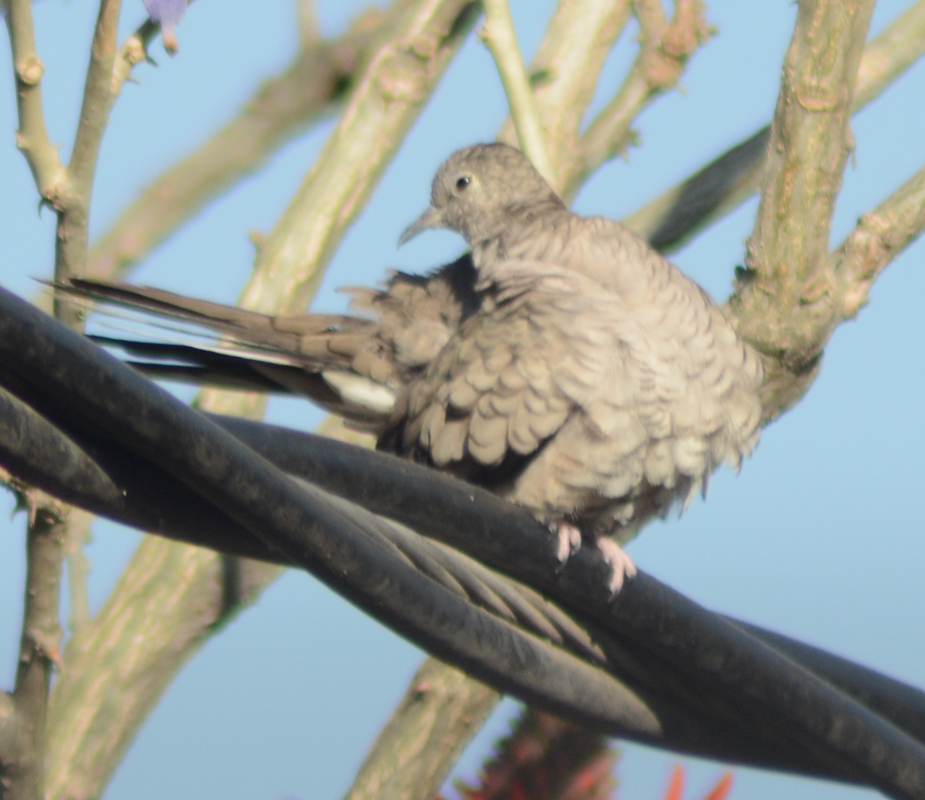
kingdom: Animalia
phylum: Chordata
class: Aves
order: Columbiformes
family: Columbidae
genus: Columbina
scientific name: Columbina inca
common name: Inca dove
